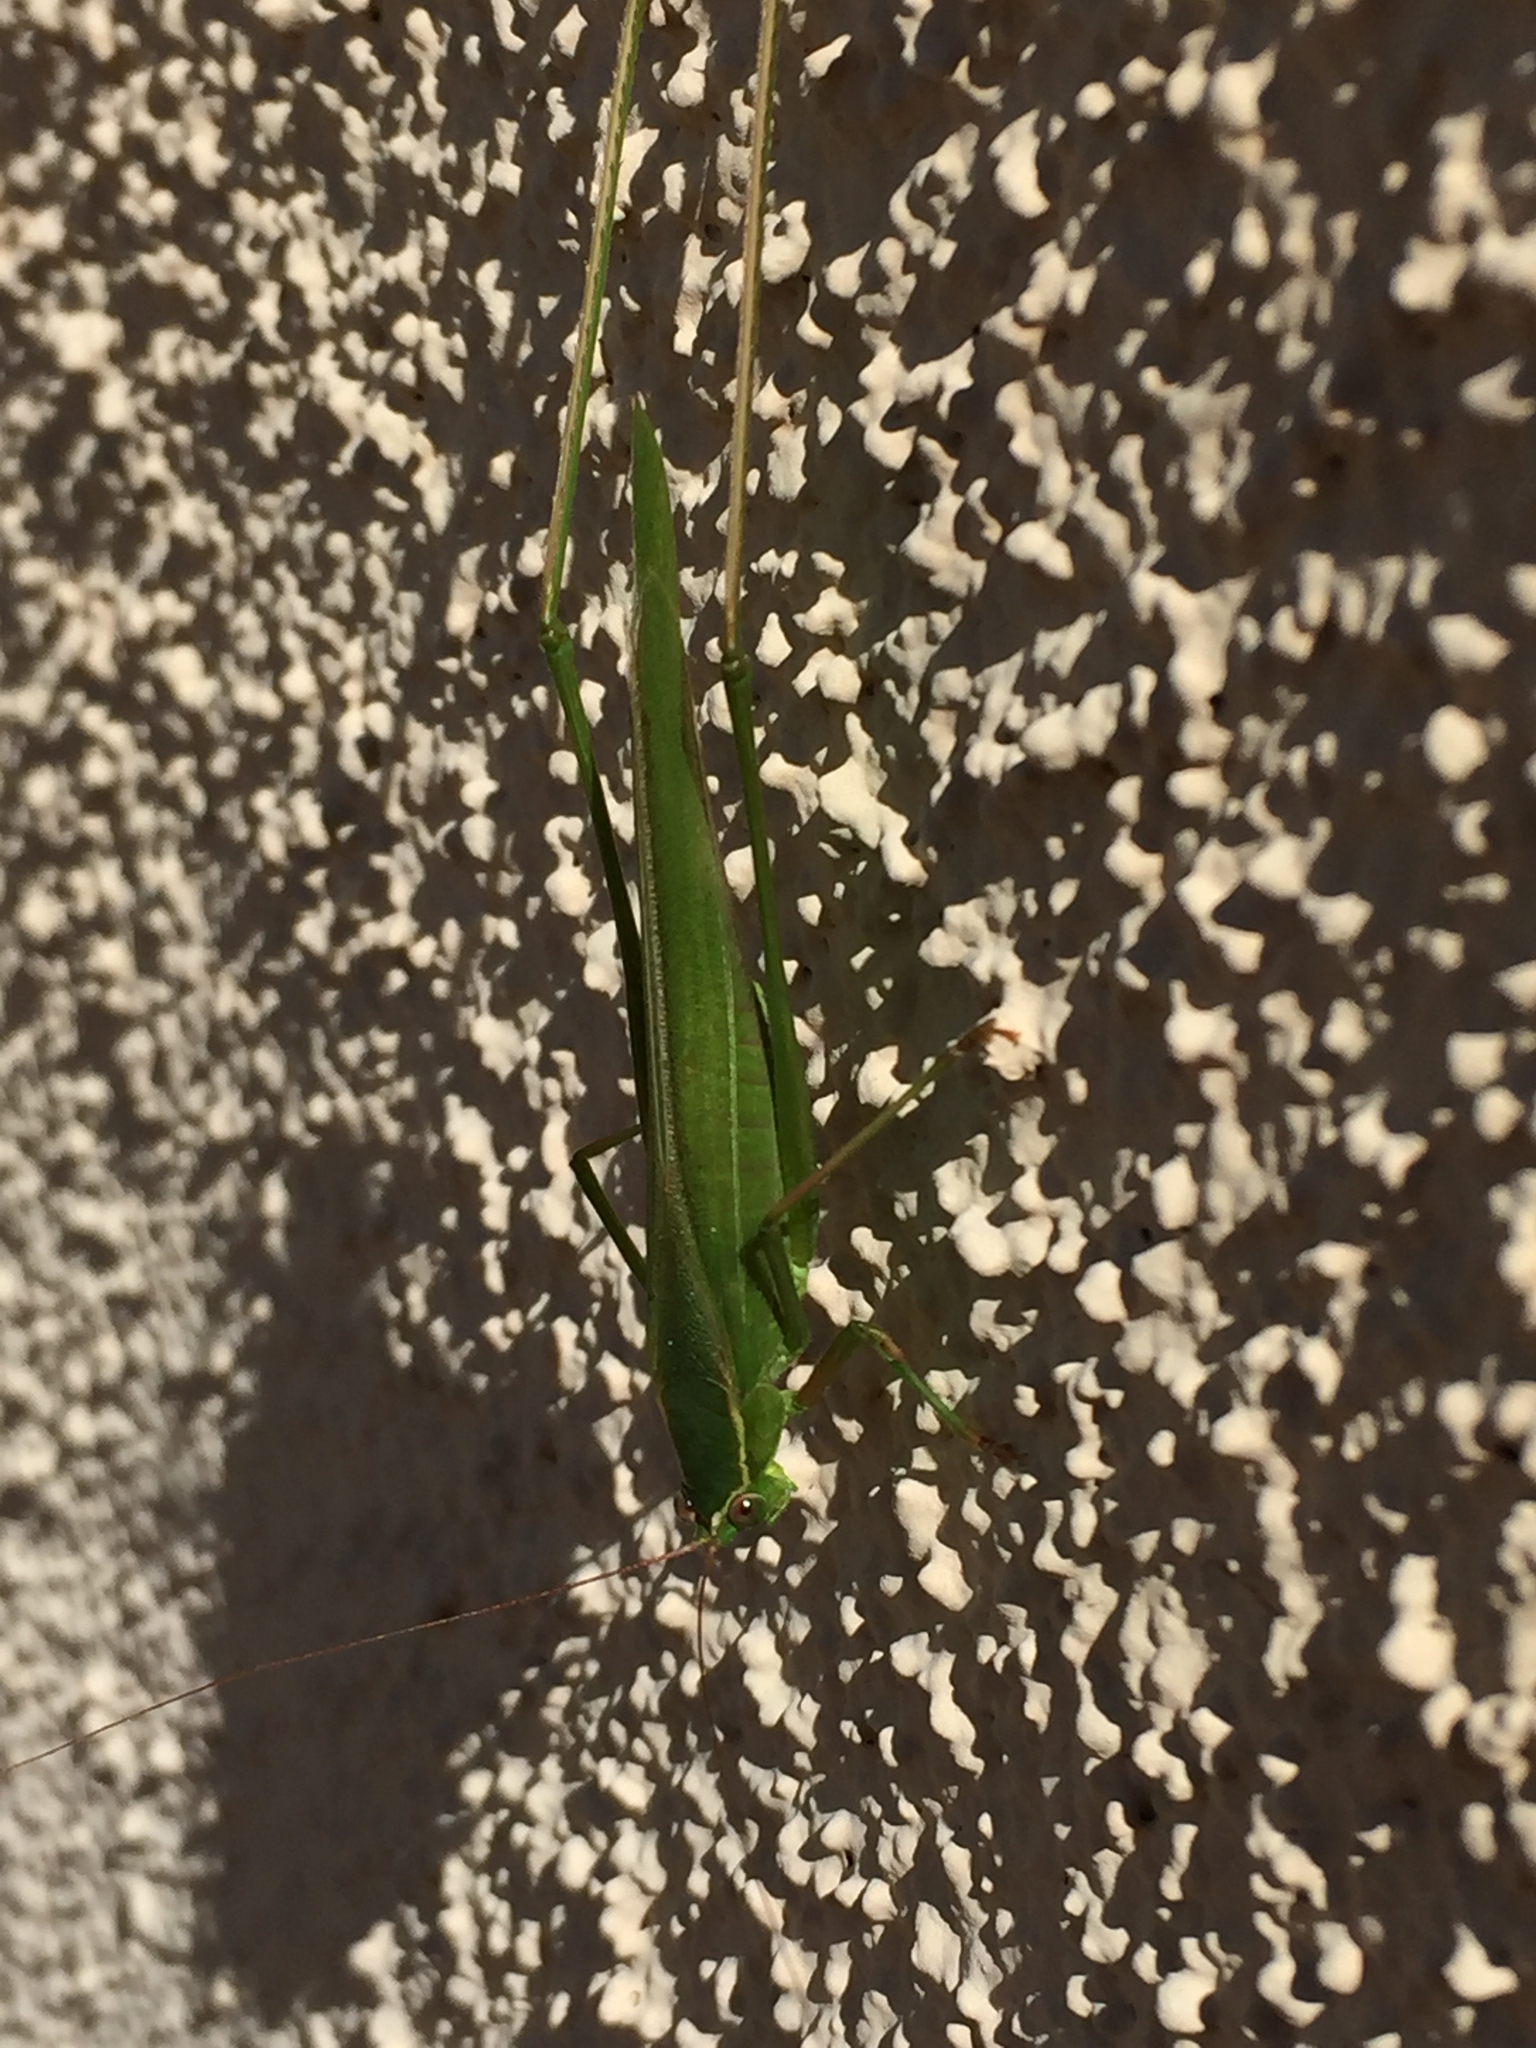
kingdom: Animalia
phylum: Arthropoda
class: Insecta
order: Orthoptera
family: Tettigoniidae
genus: Scudderia
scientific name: Scudderia mexicana
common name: Mexican bush katydid
